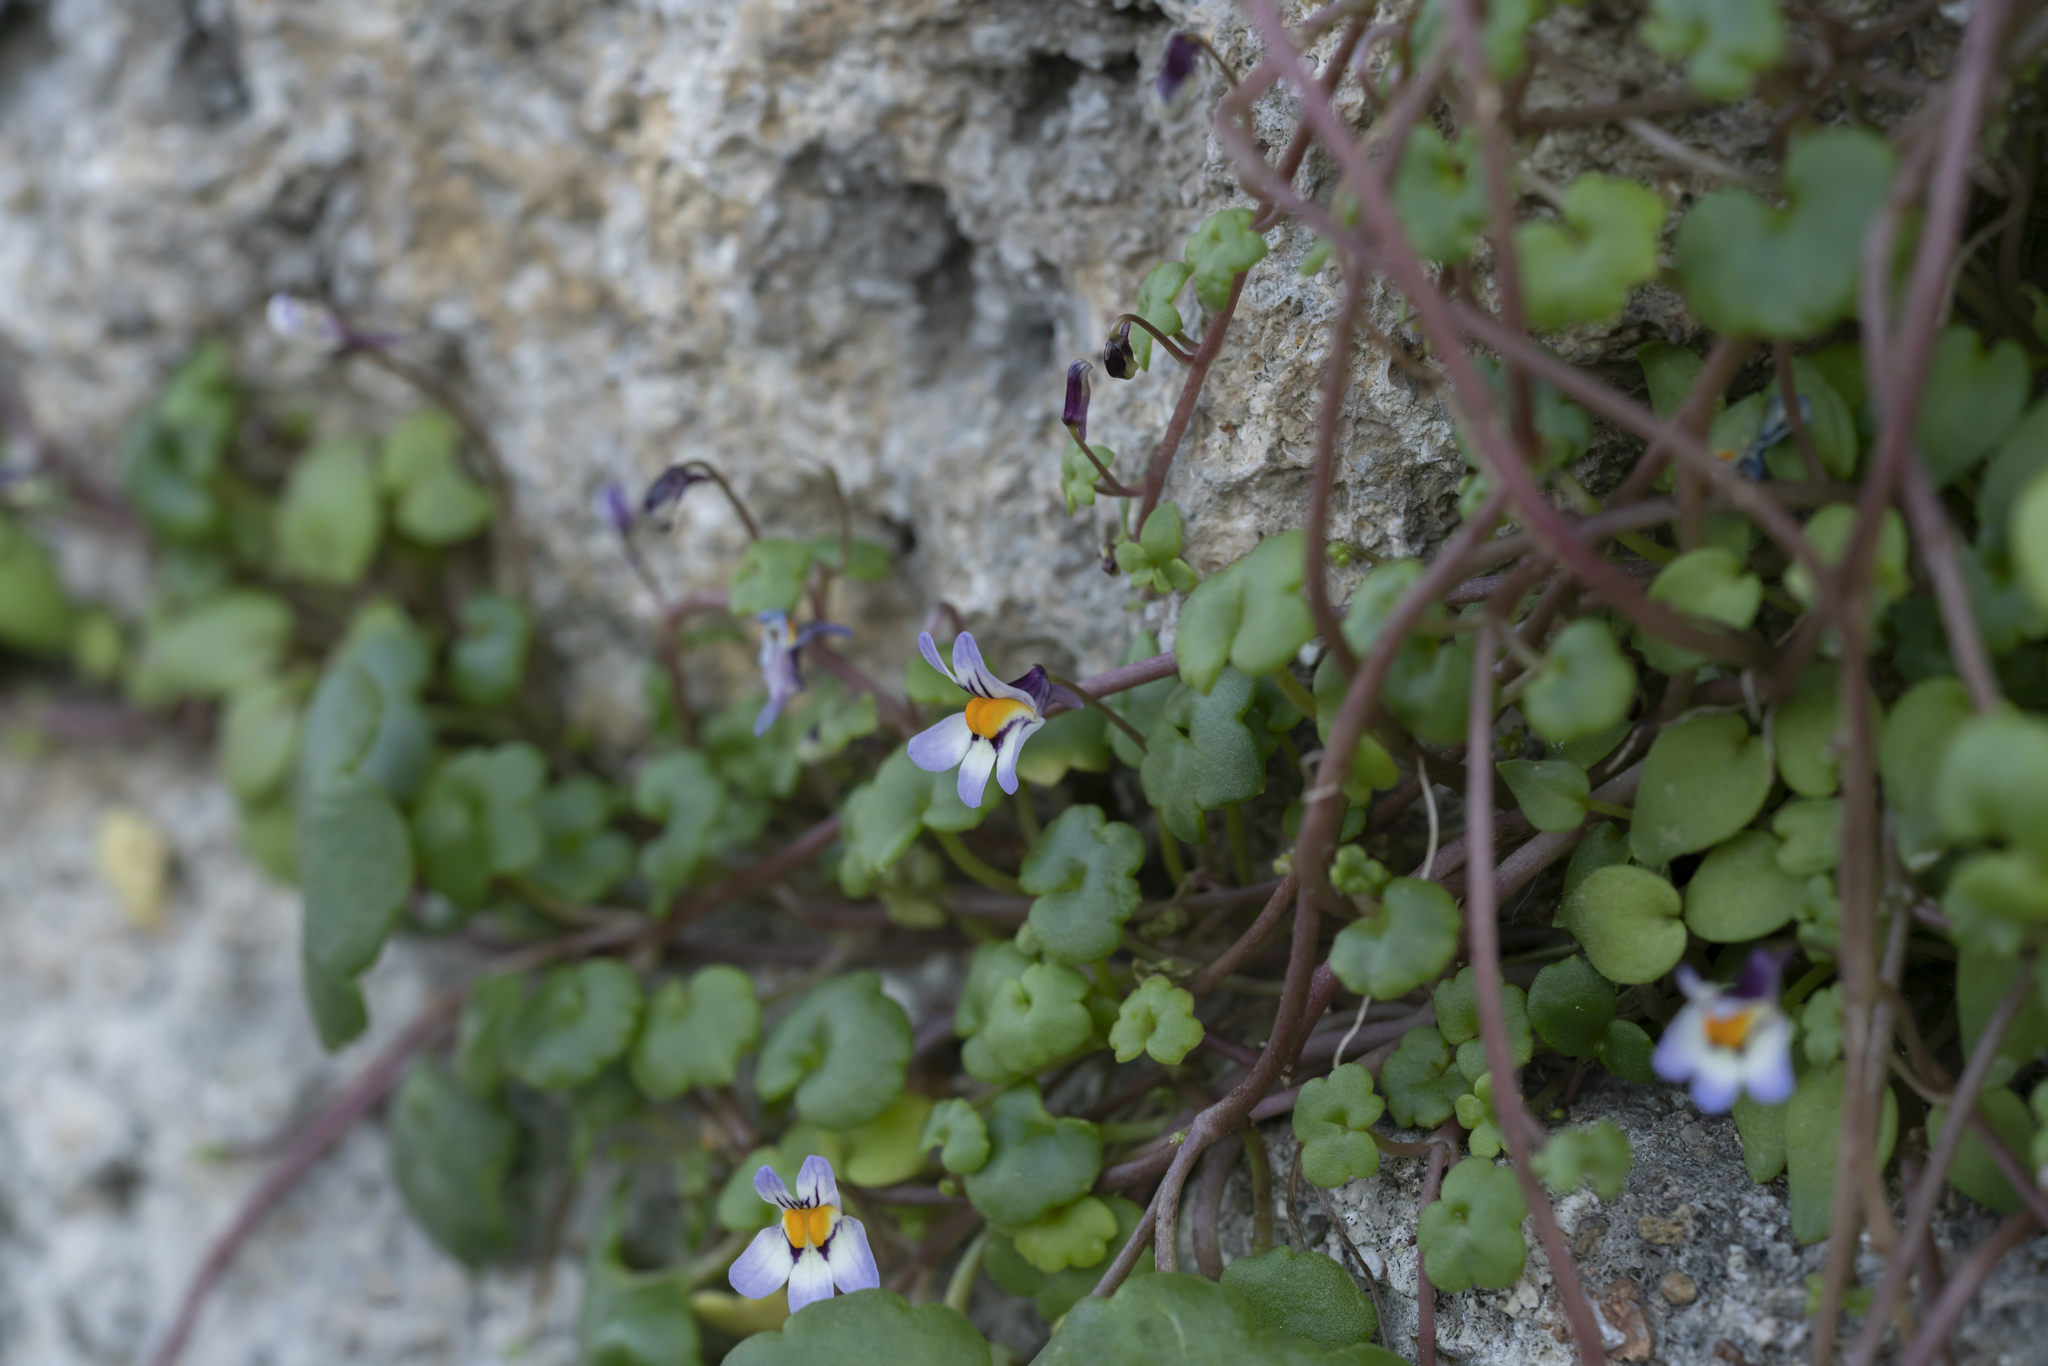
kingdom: Plantae
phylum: Tracheophyta
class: Magnoliopsida
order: Lamiales
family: Plantaginaceae
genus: Cymbalaria
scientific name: Cymbalaria longipes
